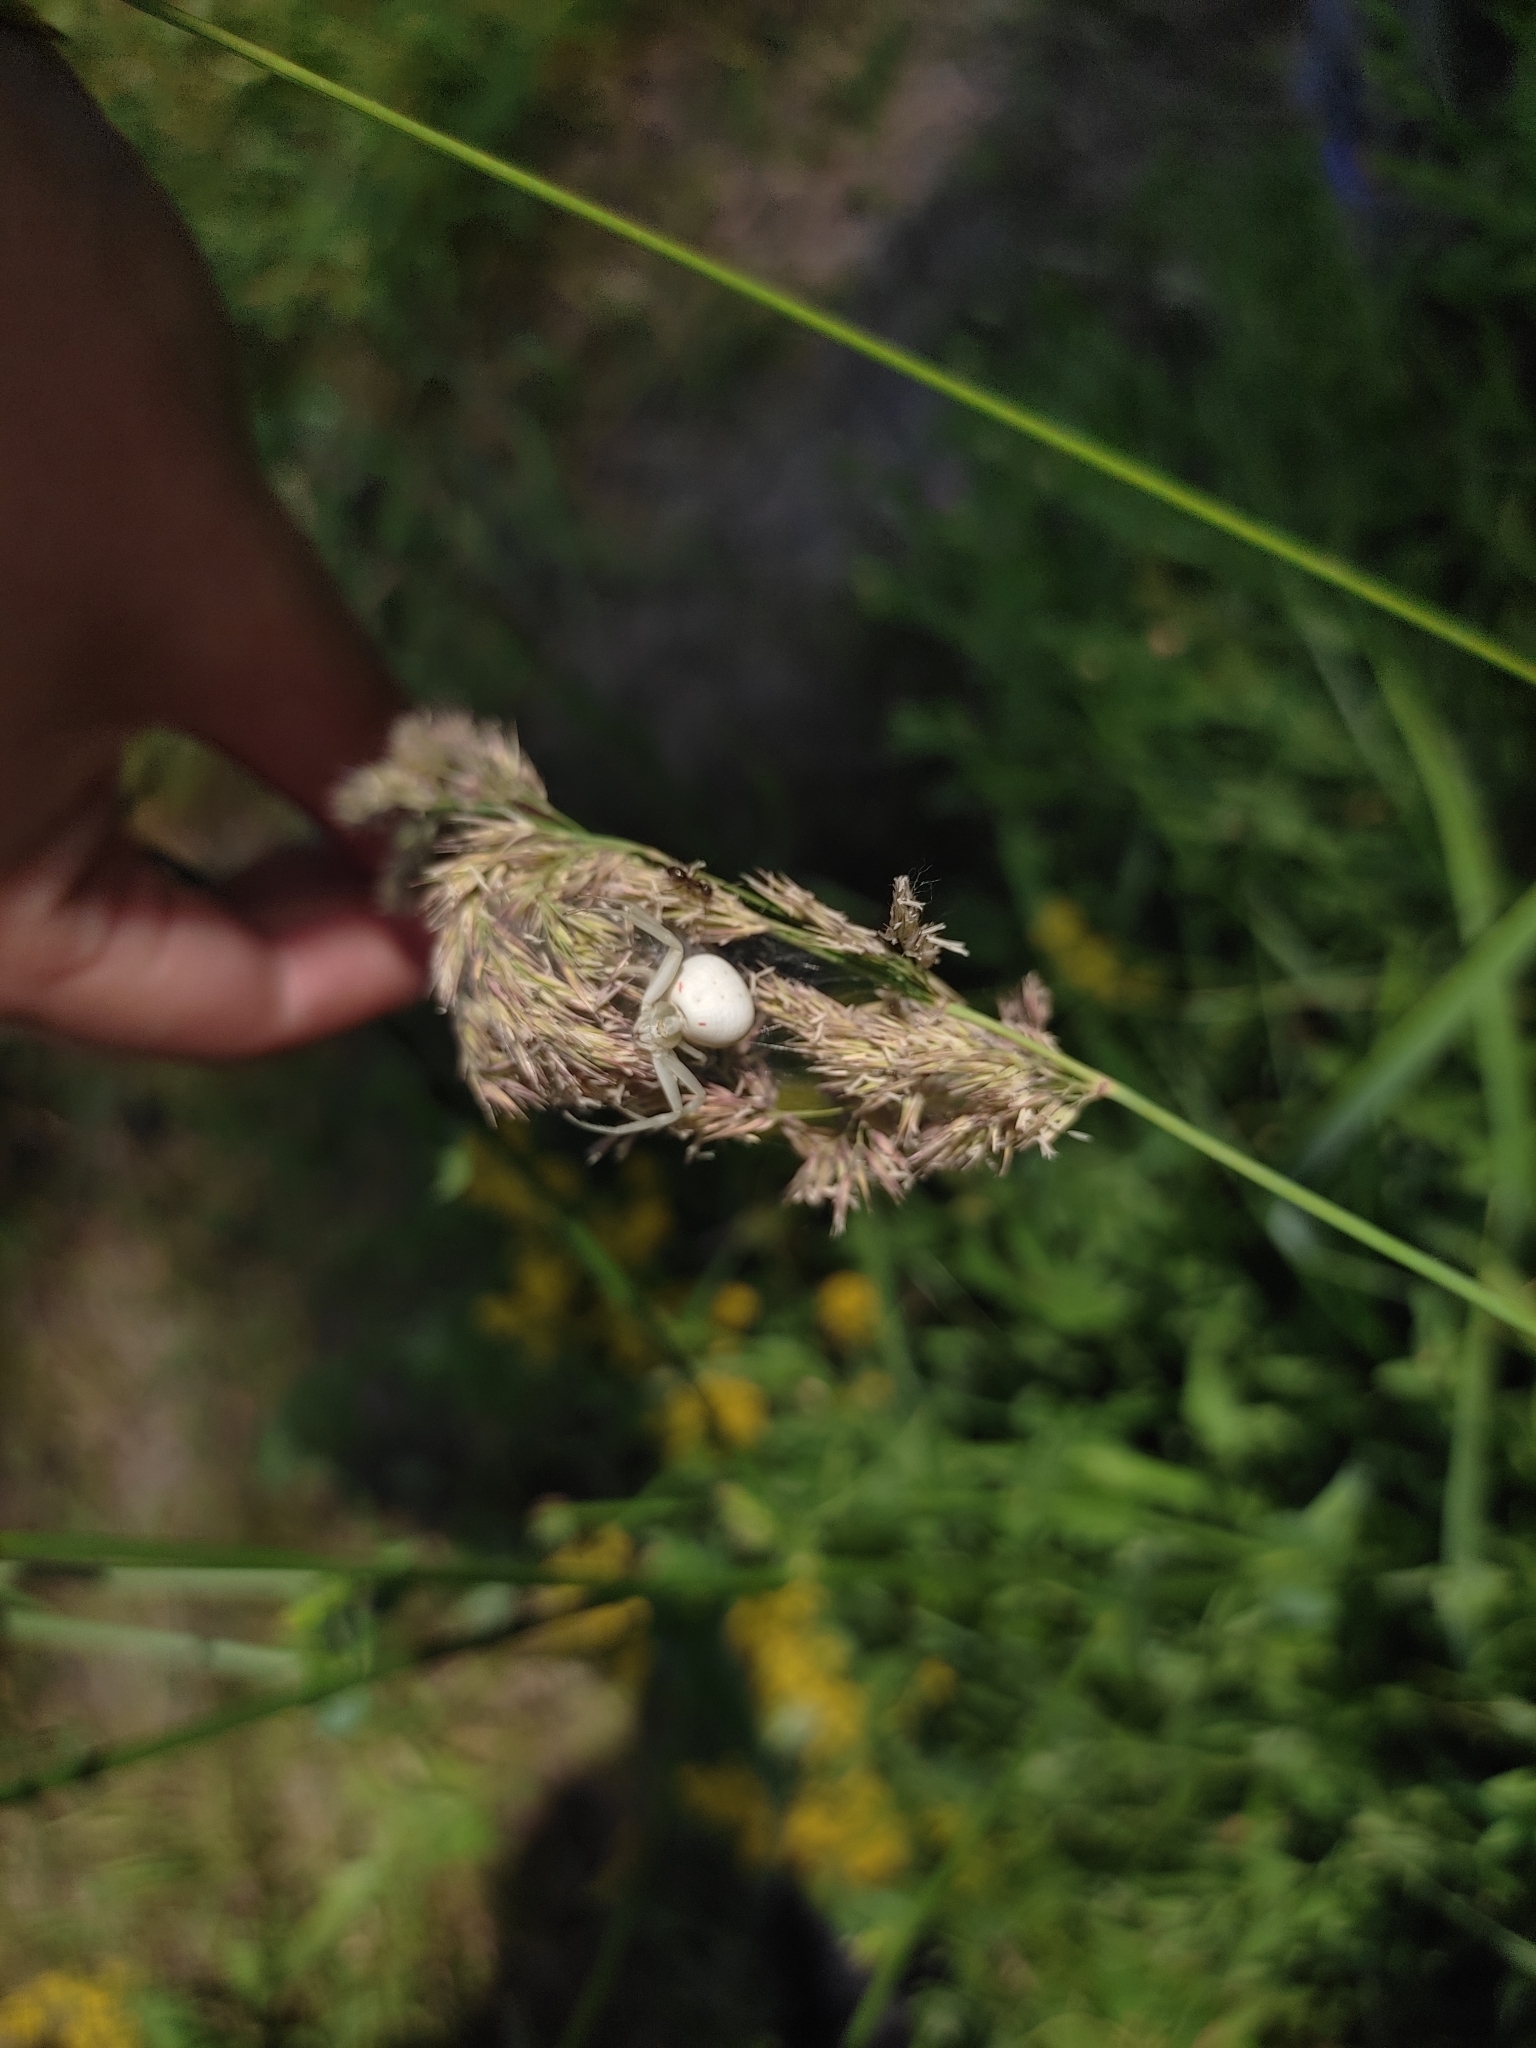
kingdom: Animalia
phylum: Arthropoda
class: Arachnida
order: Araneae
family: Thomisidae
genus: Misumena
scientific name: Misumena vatia
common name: Goldenrod crab spider
